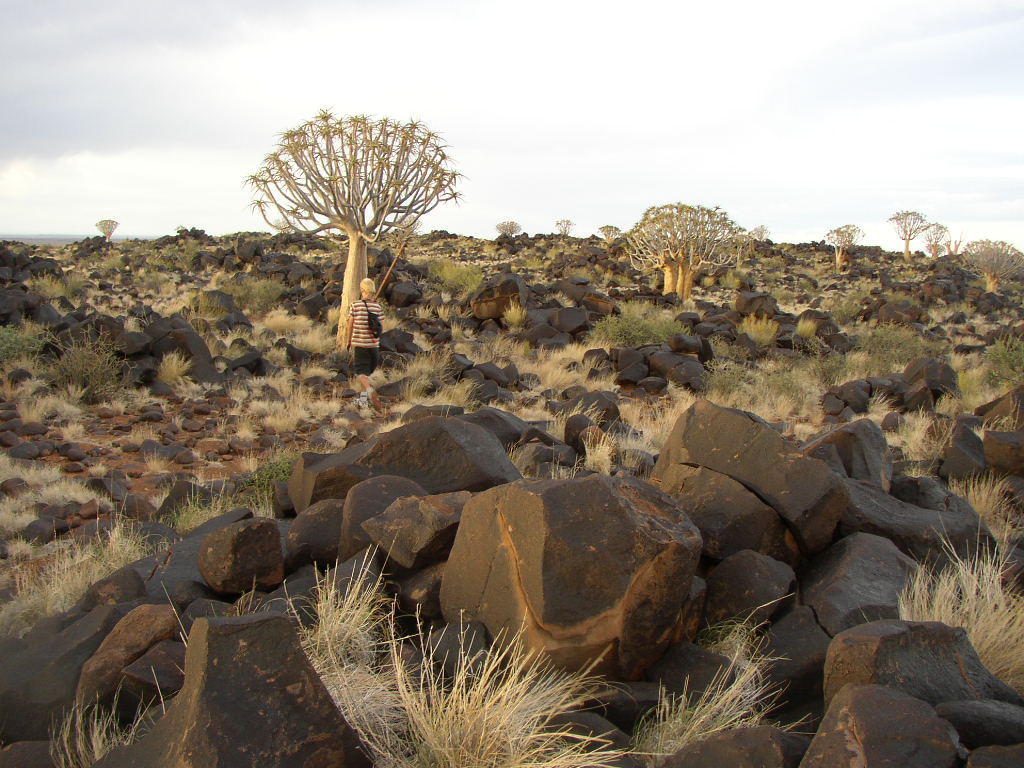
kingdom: Plantae
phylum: Tracheophyta
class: Liliopsida
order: Asparagales
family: Asphodelaceae
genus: Aloidendron
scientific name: Aloidendron dichotomum
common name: Quiver tree
